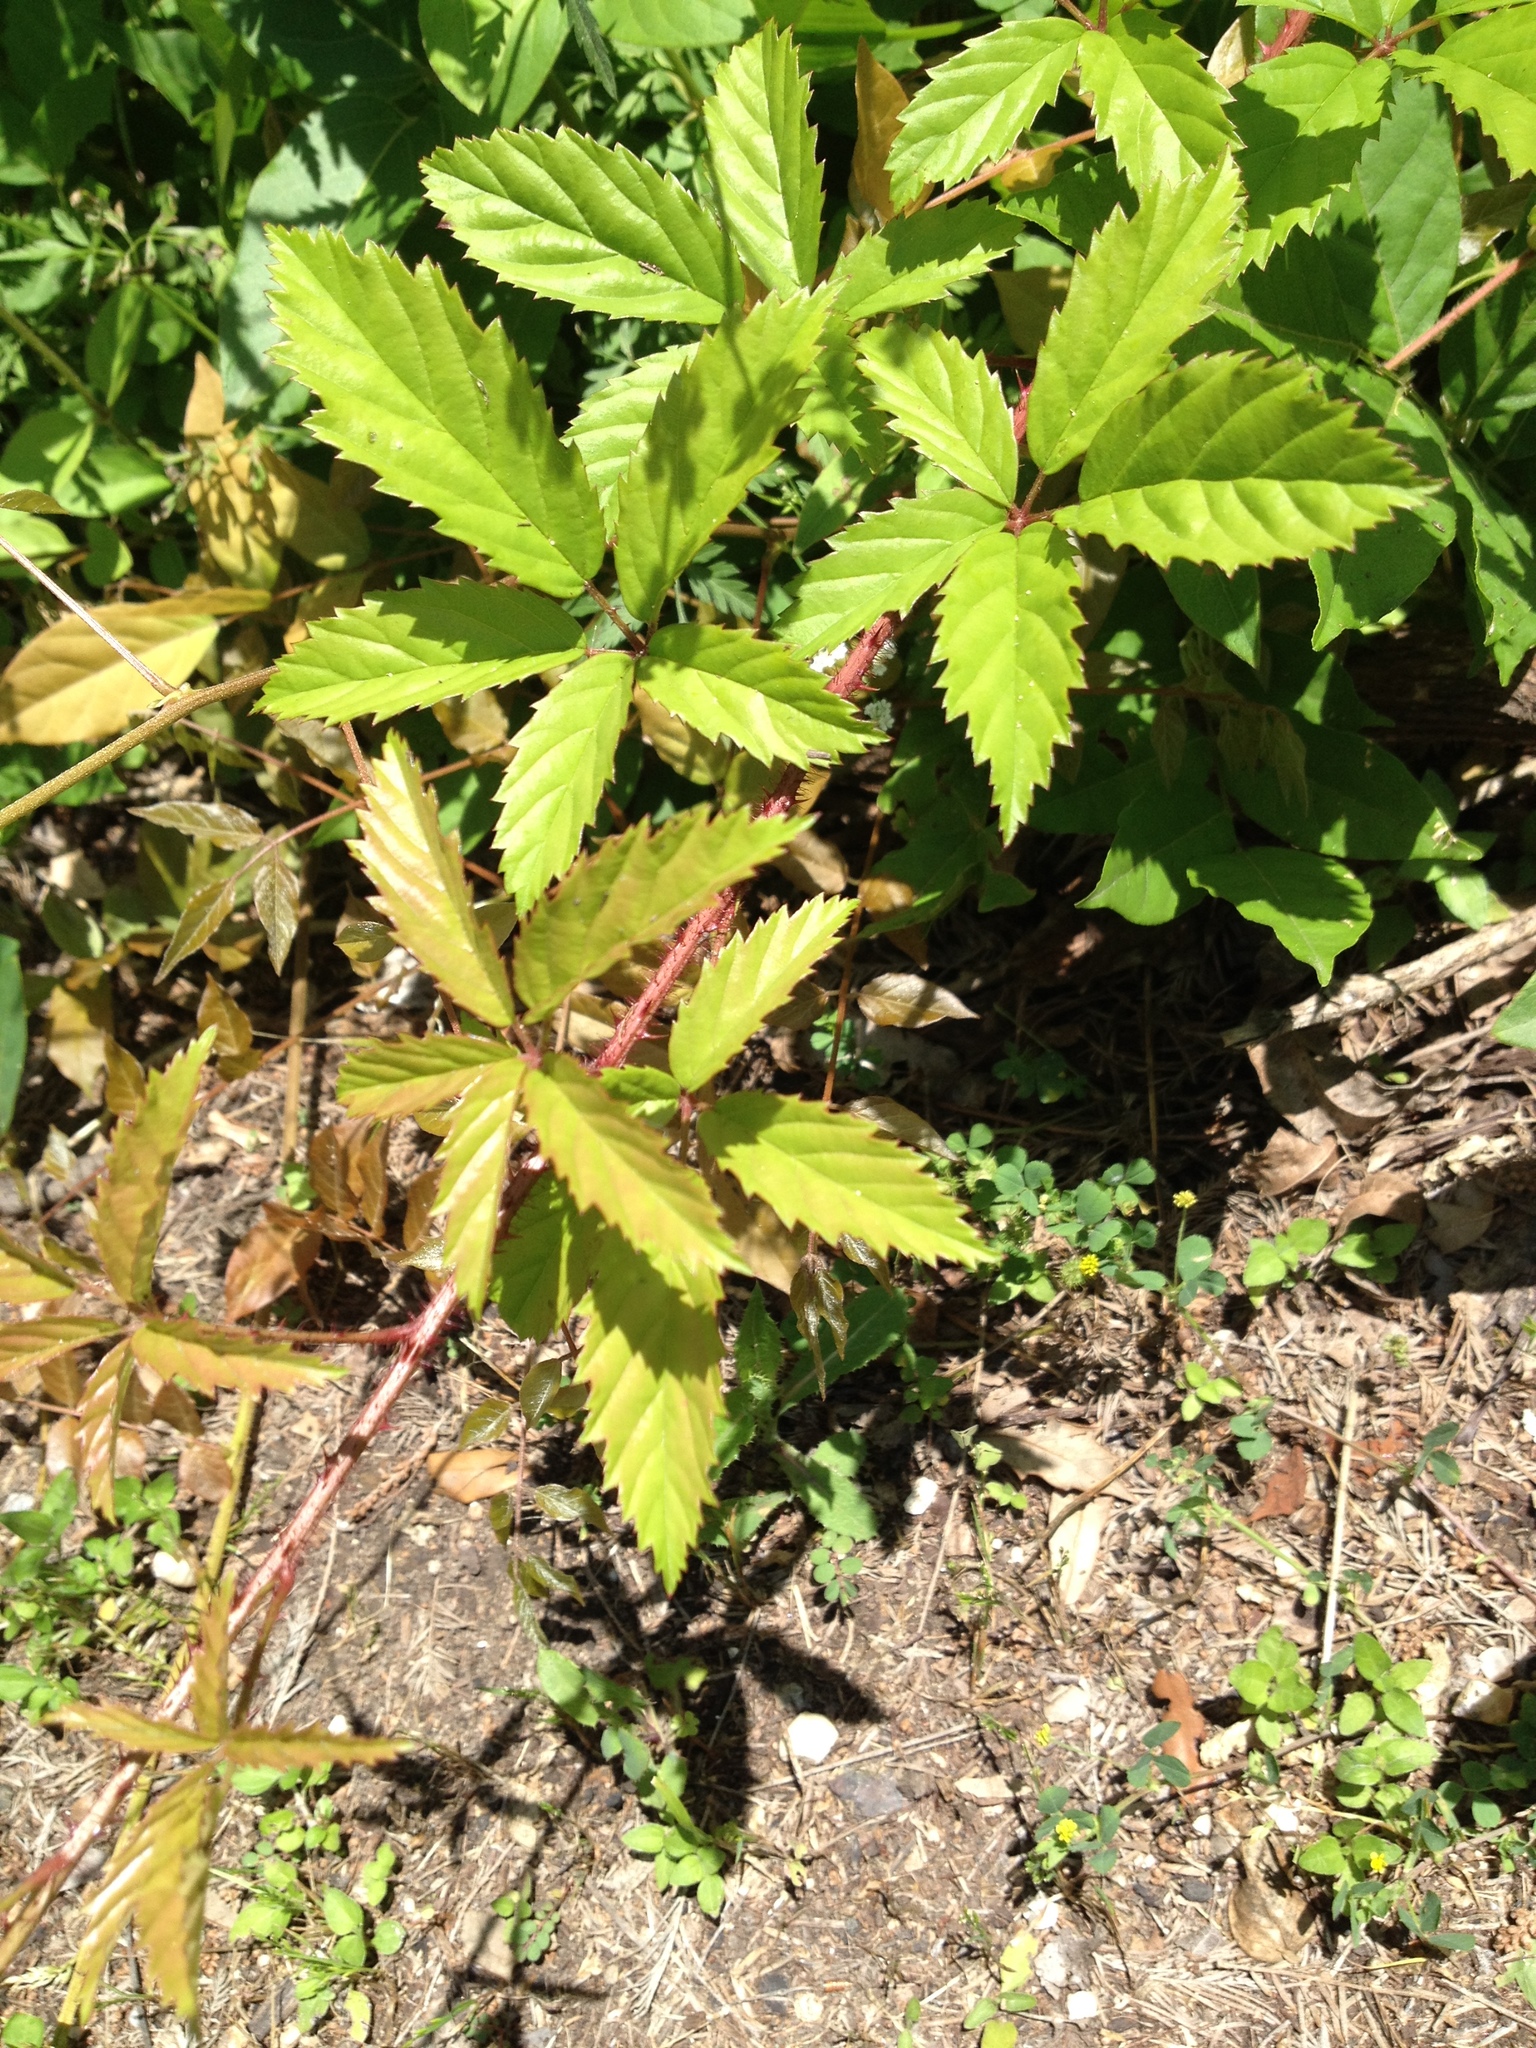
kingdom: Plantae
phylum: Tracheophyta
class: Magnoliopsida
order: Rosales
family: Rosaceae
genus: Rubus
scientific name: Rubus trivialis
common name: Southern dewberry
